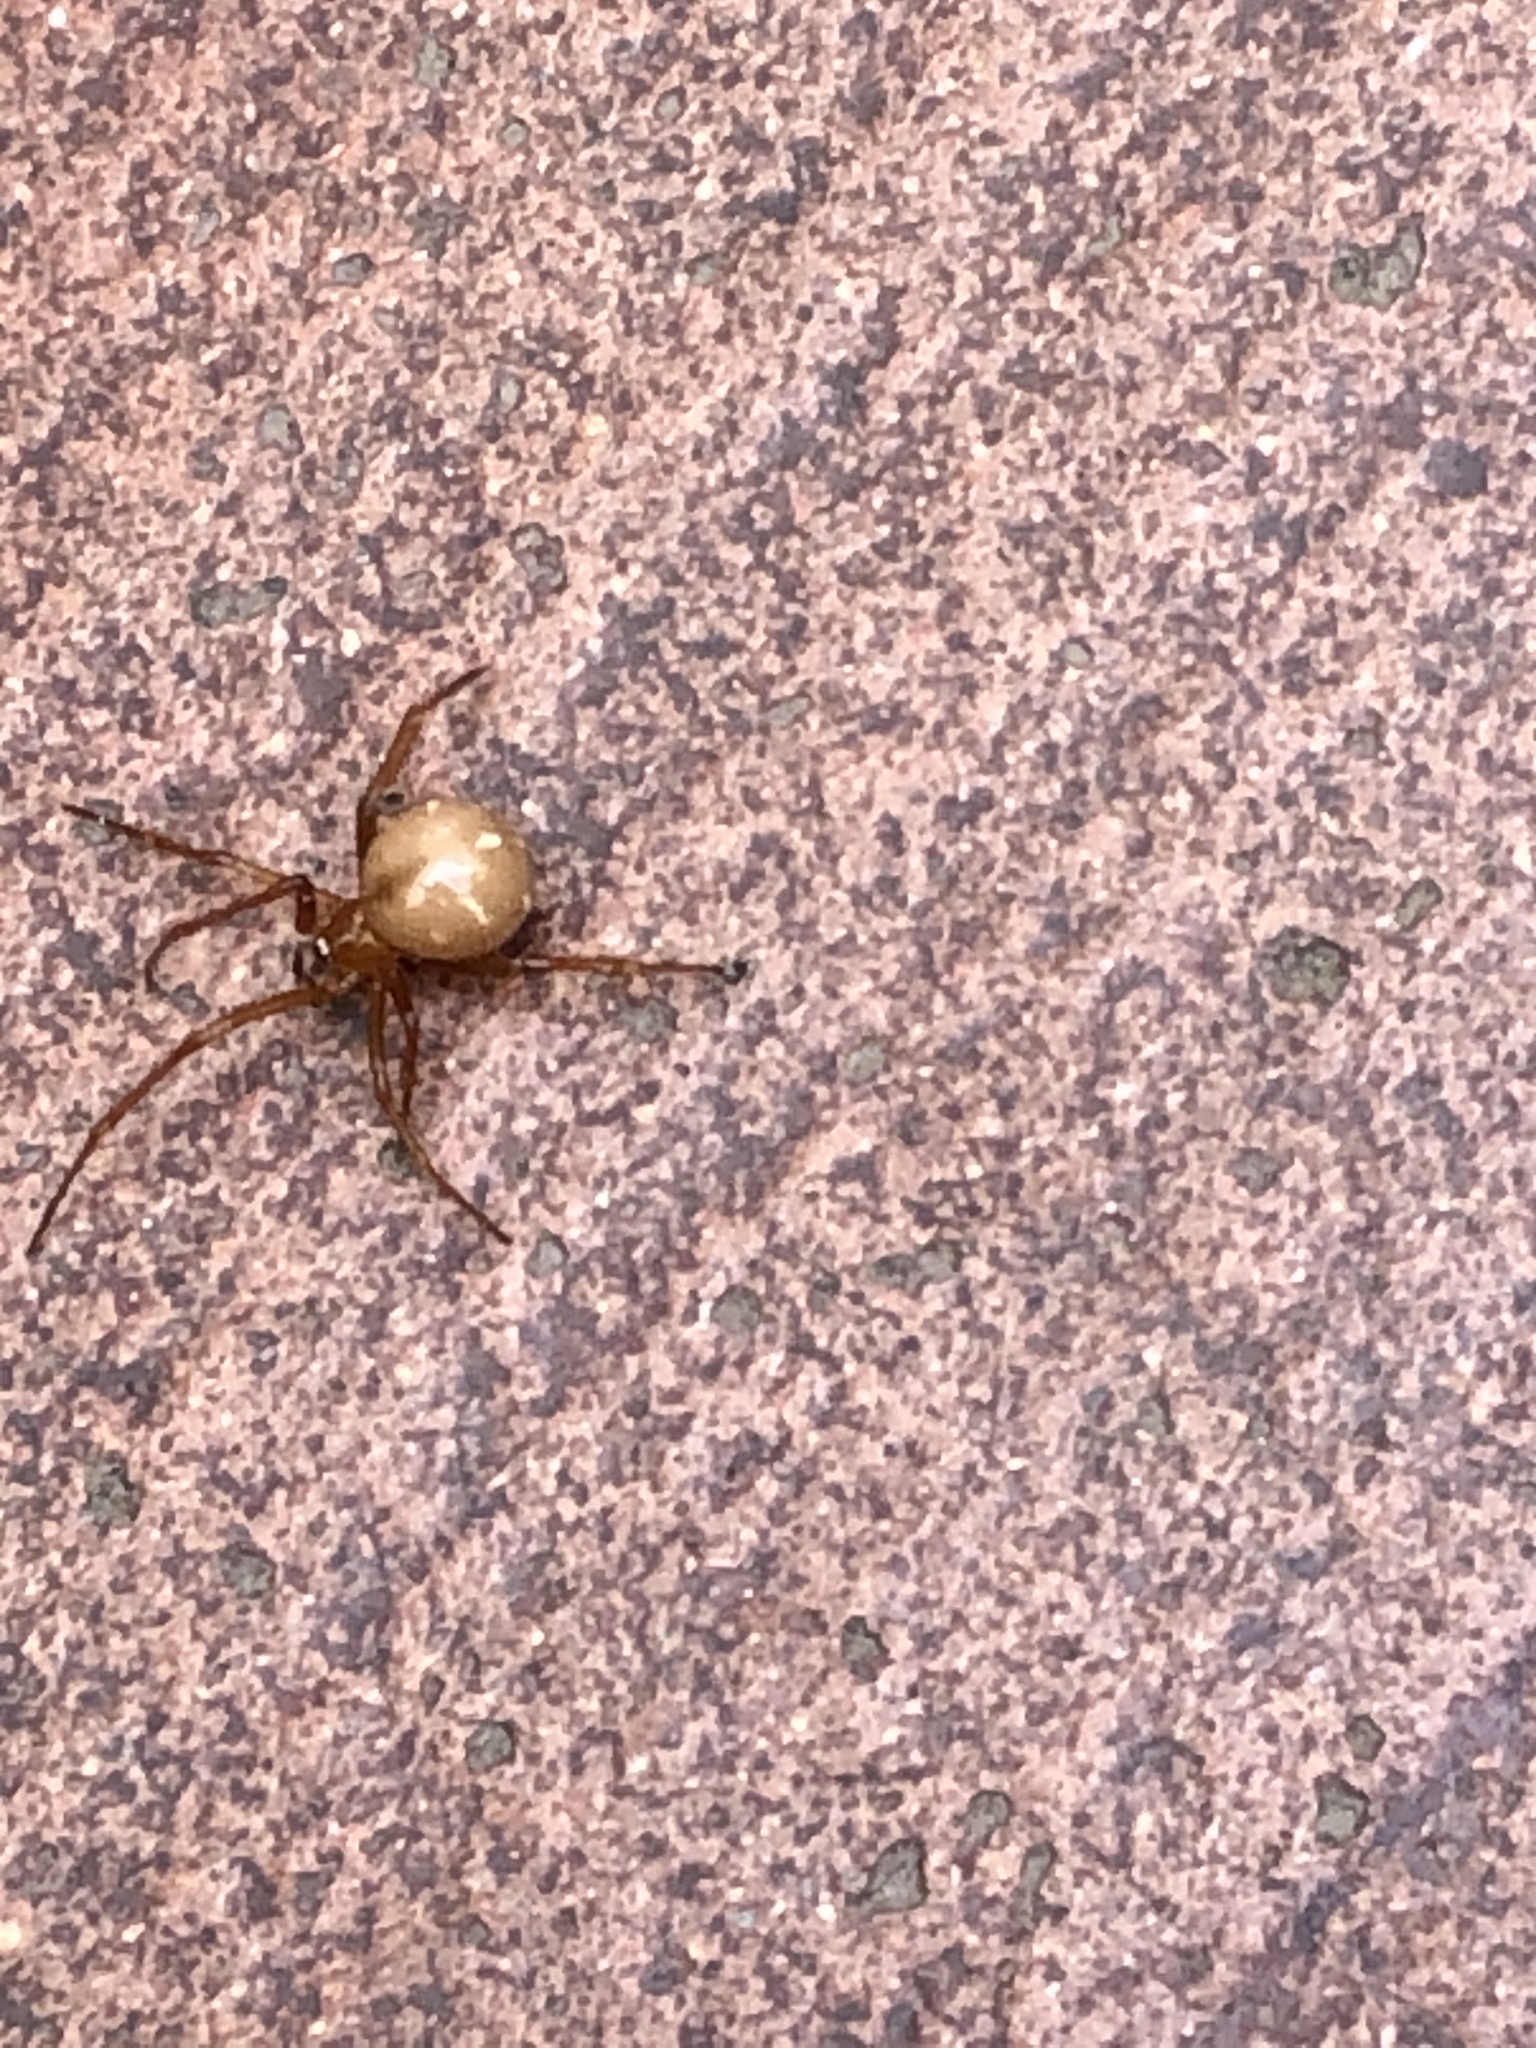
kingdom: Animalia
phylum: Arthropoda
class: Arachnida
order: Araneae
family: Theridiidae
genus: Nesticodes
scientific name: Nesticodes rufipes
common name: Cobweb spiders
